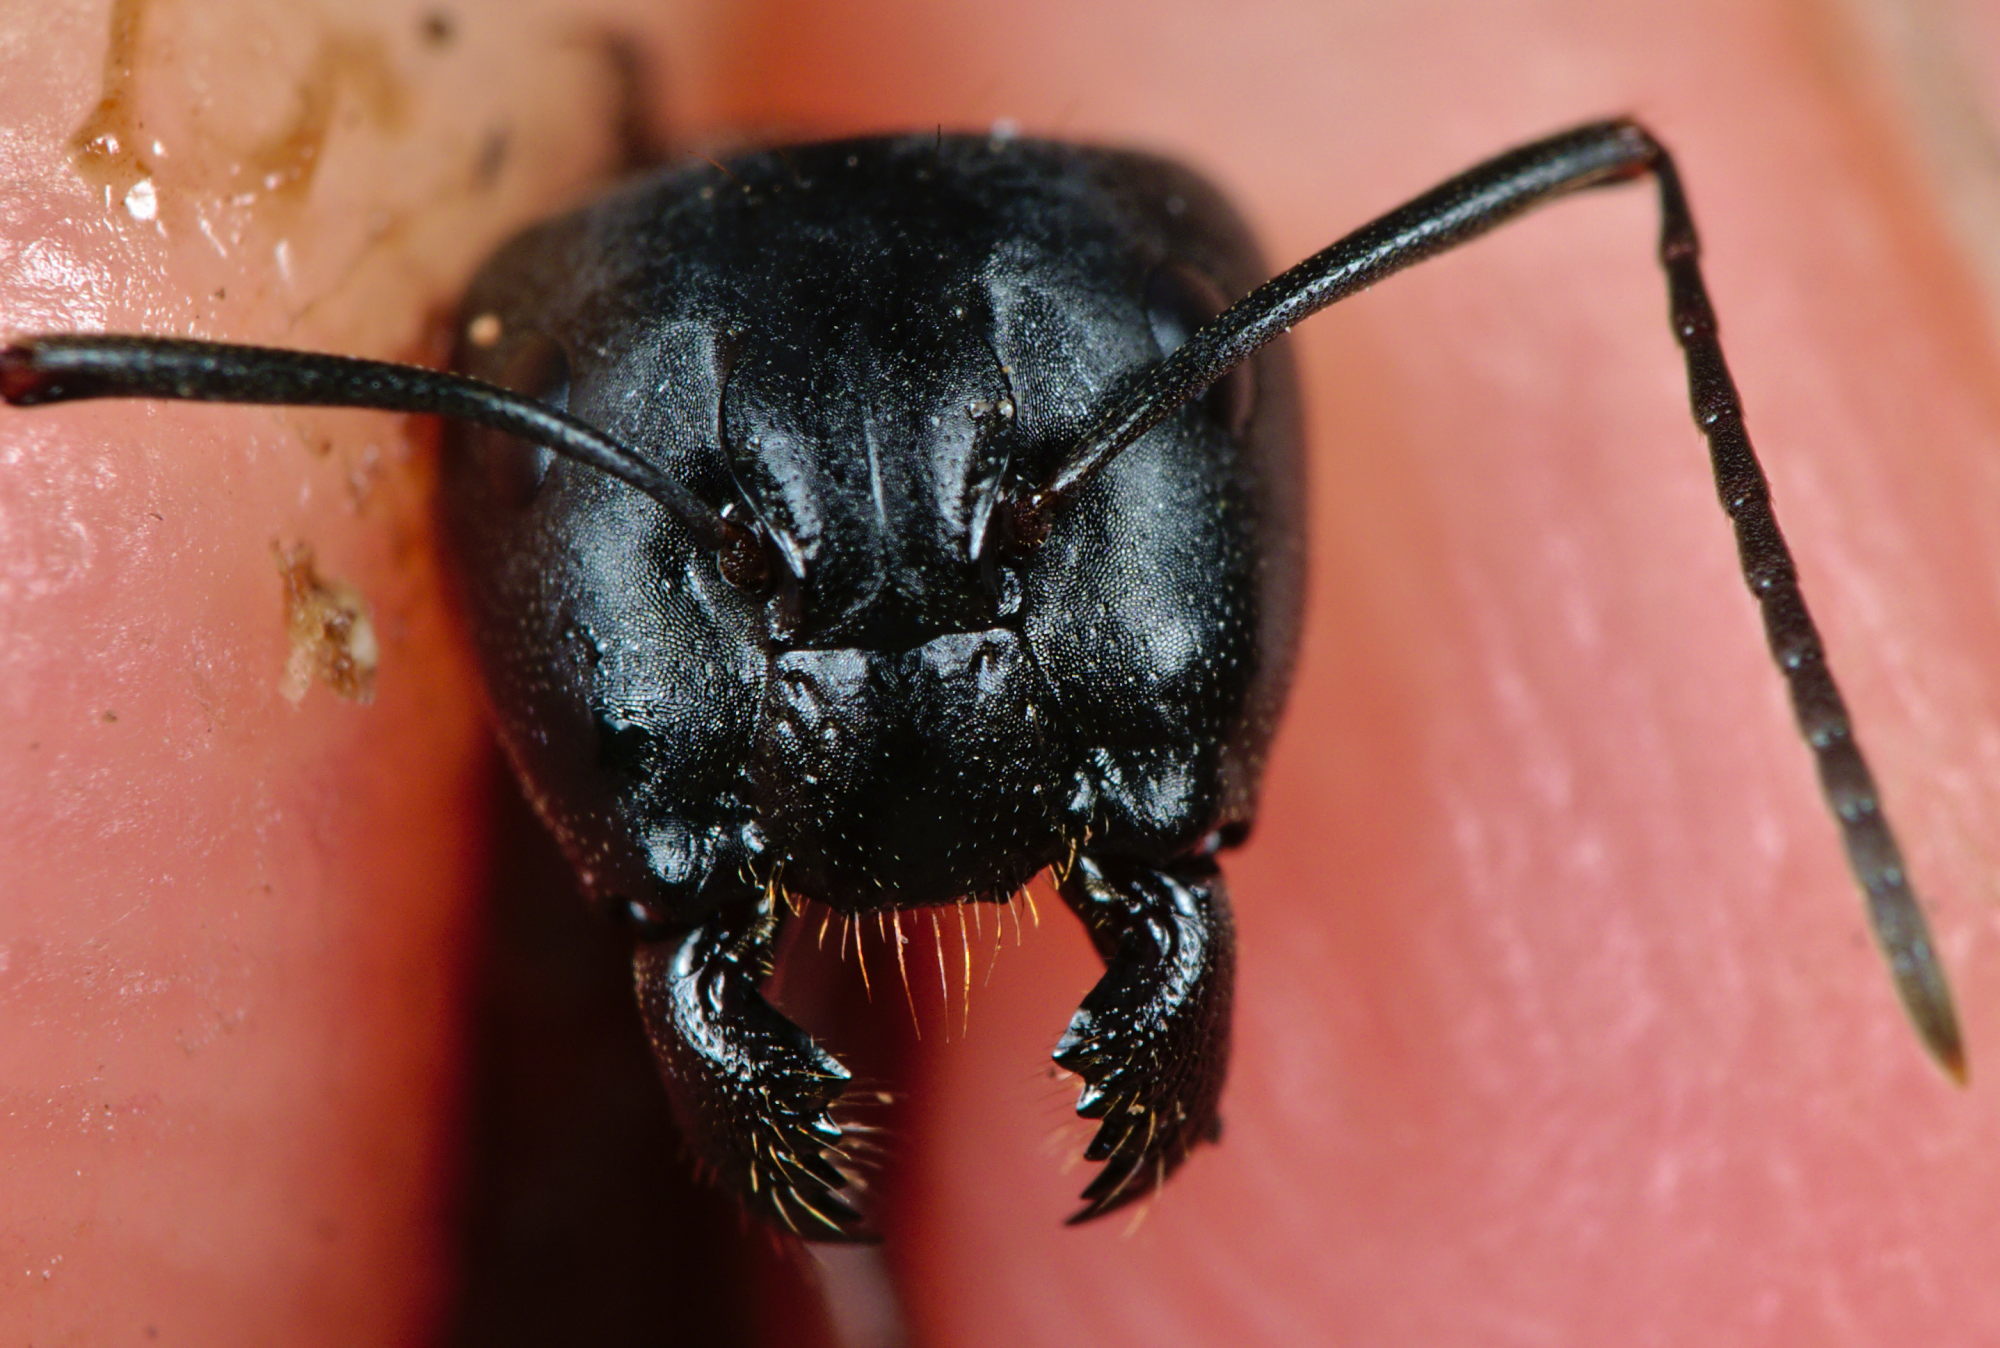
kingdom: Animalia
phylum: Arthropoda
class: Insecta
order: Hymenoptera
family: Formicidae
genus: Camponotus
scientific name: Camponotus ligniperdus
